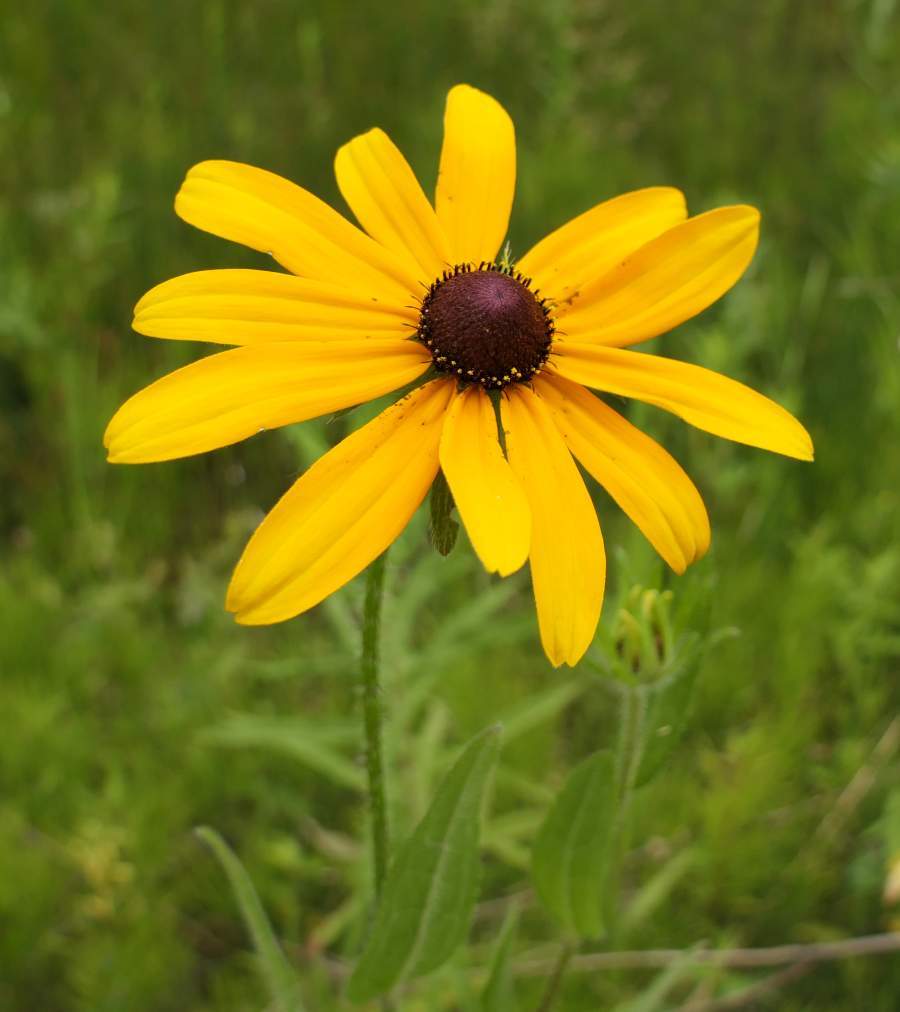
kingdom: Plantae
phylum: Tracheophyta
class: Magnoliopsida
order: Asterales
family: Asteraceae
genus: Rudbeckia
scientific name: Rudbeckia hirta
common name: Black-eyed-susan
